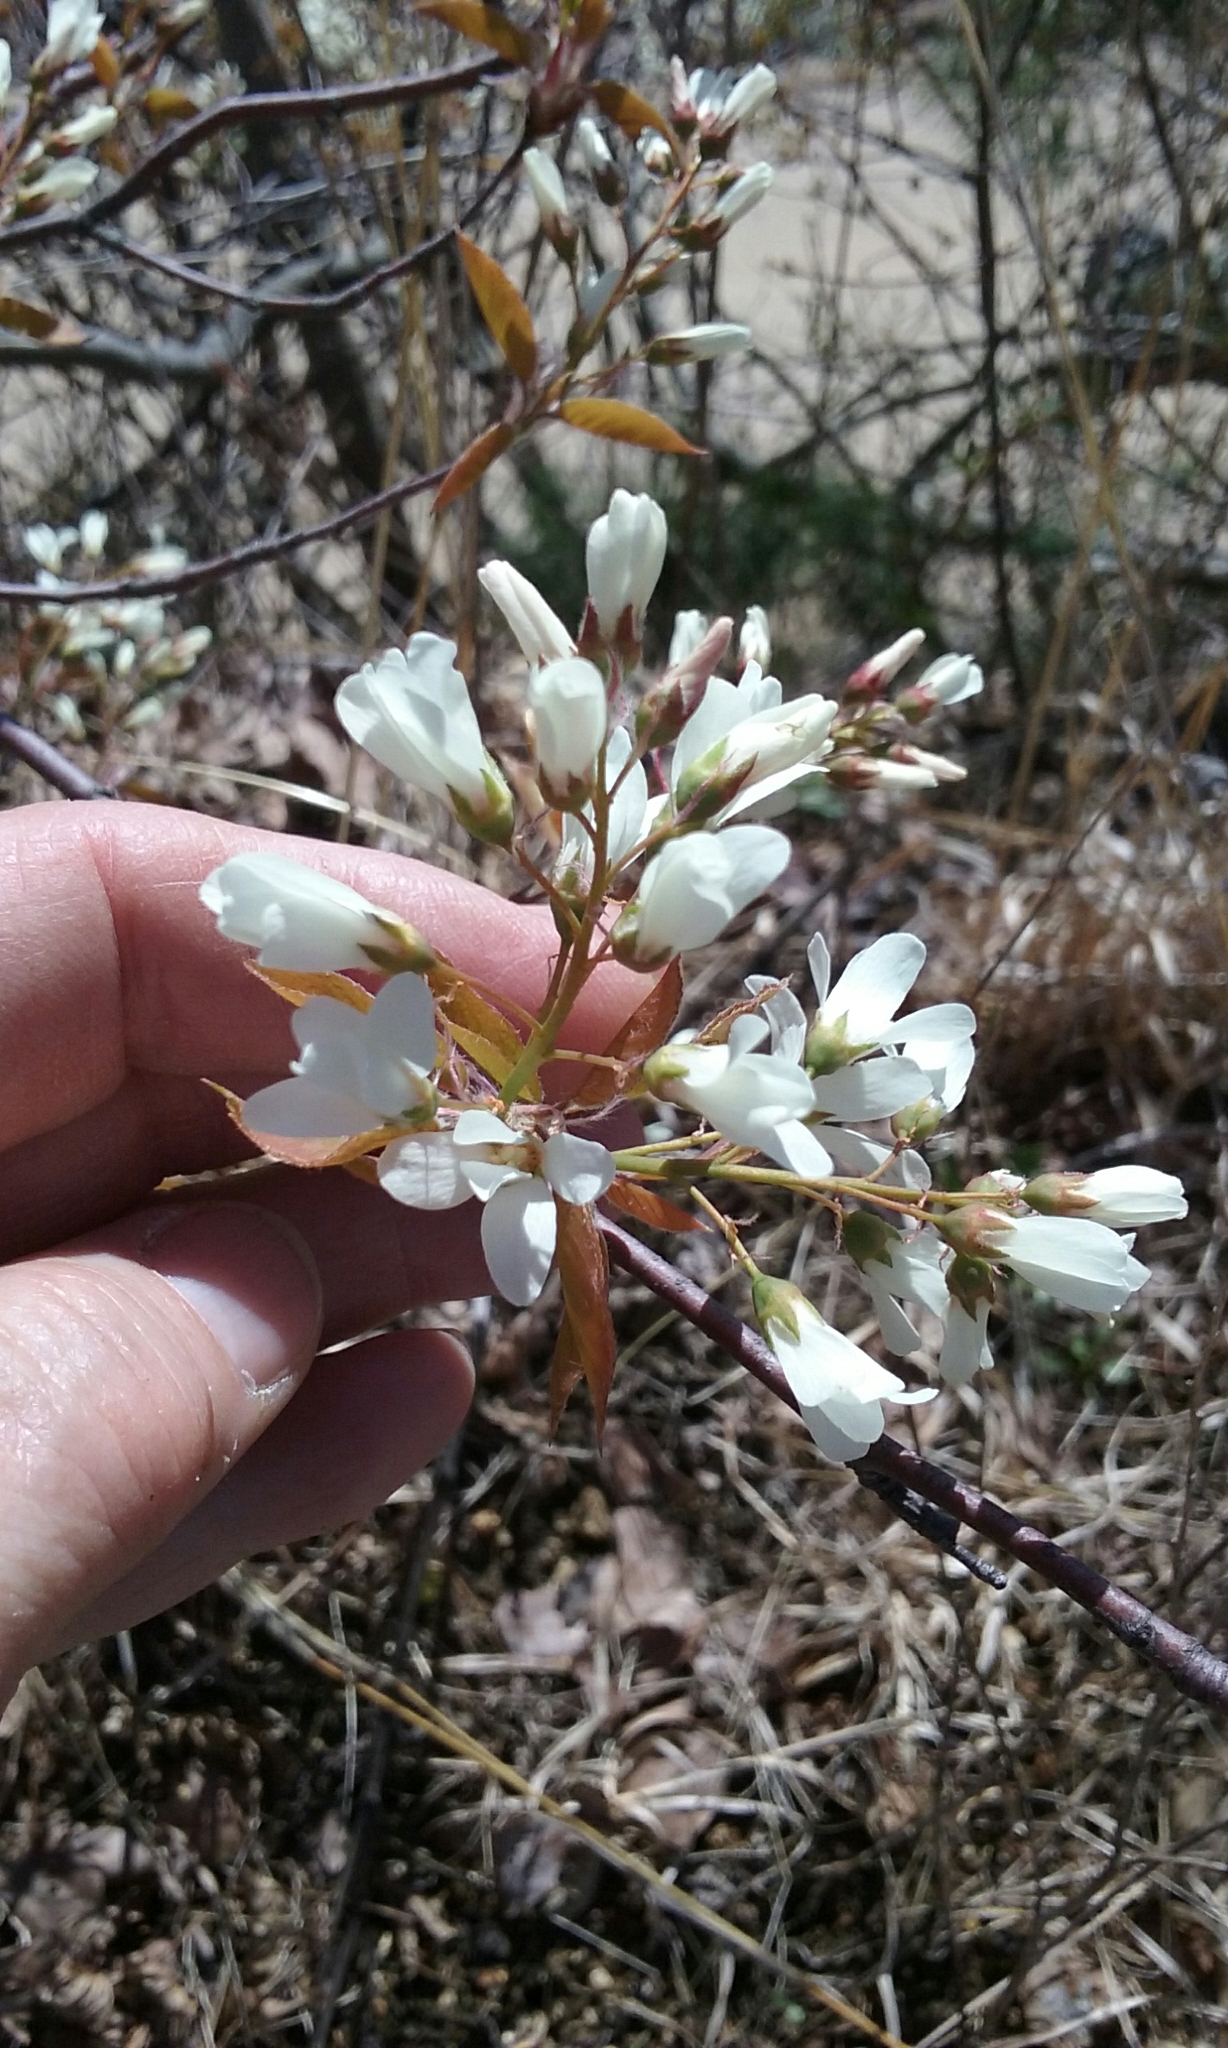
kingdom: Plantae
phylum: Tracheophyta
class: Magnoliopsida
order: Rosales
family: Rosaceae
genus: Amelanchier
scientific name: Amelanchier
